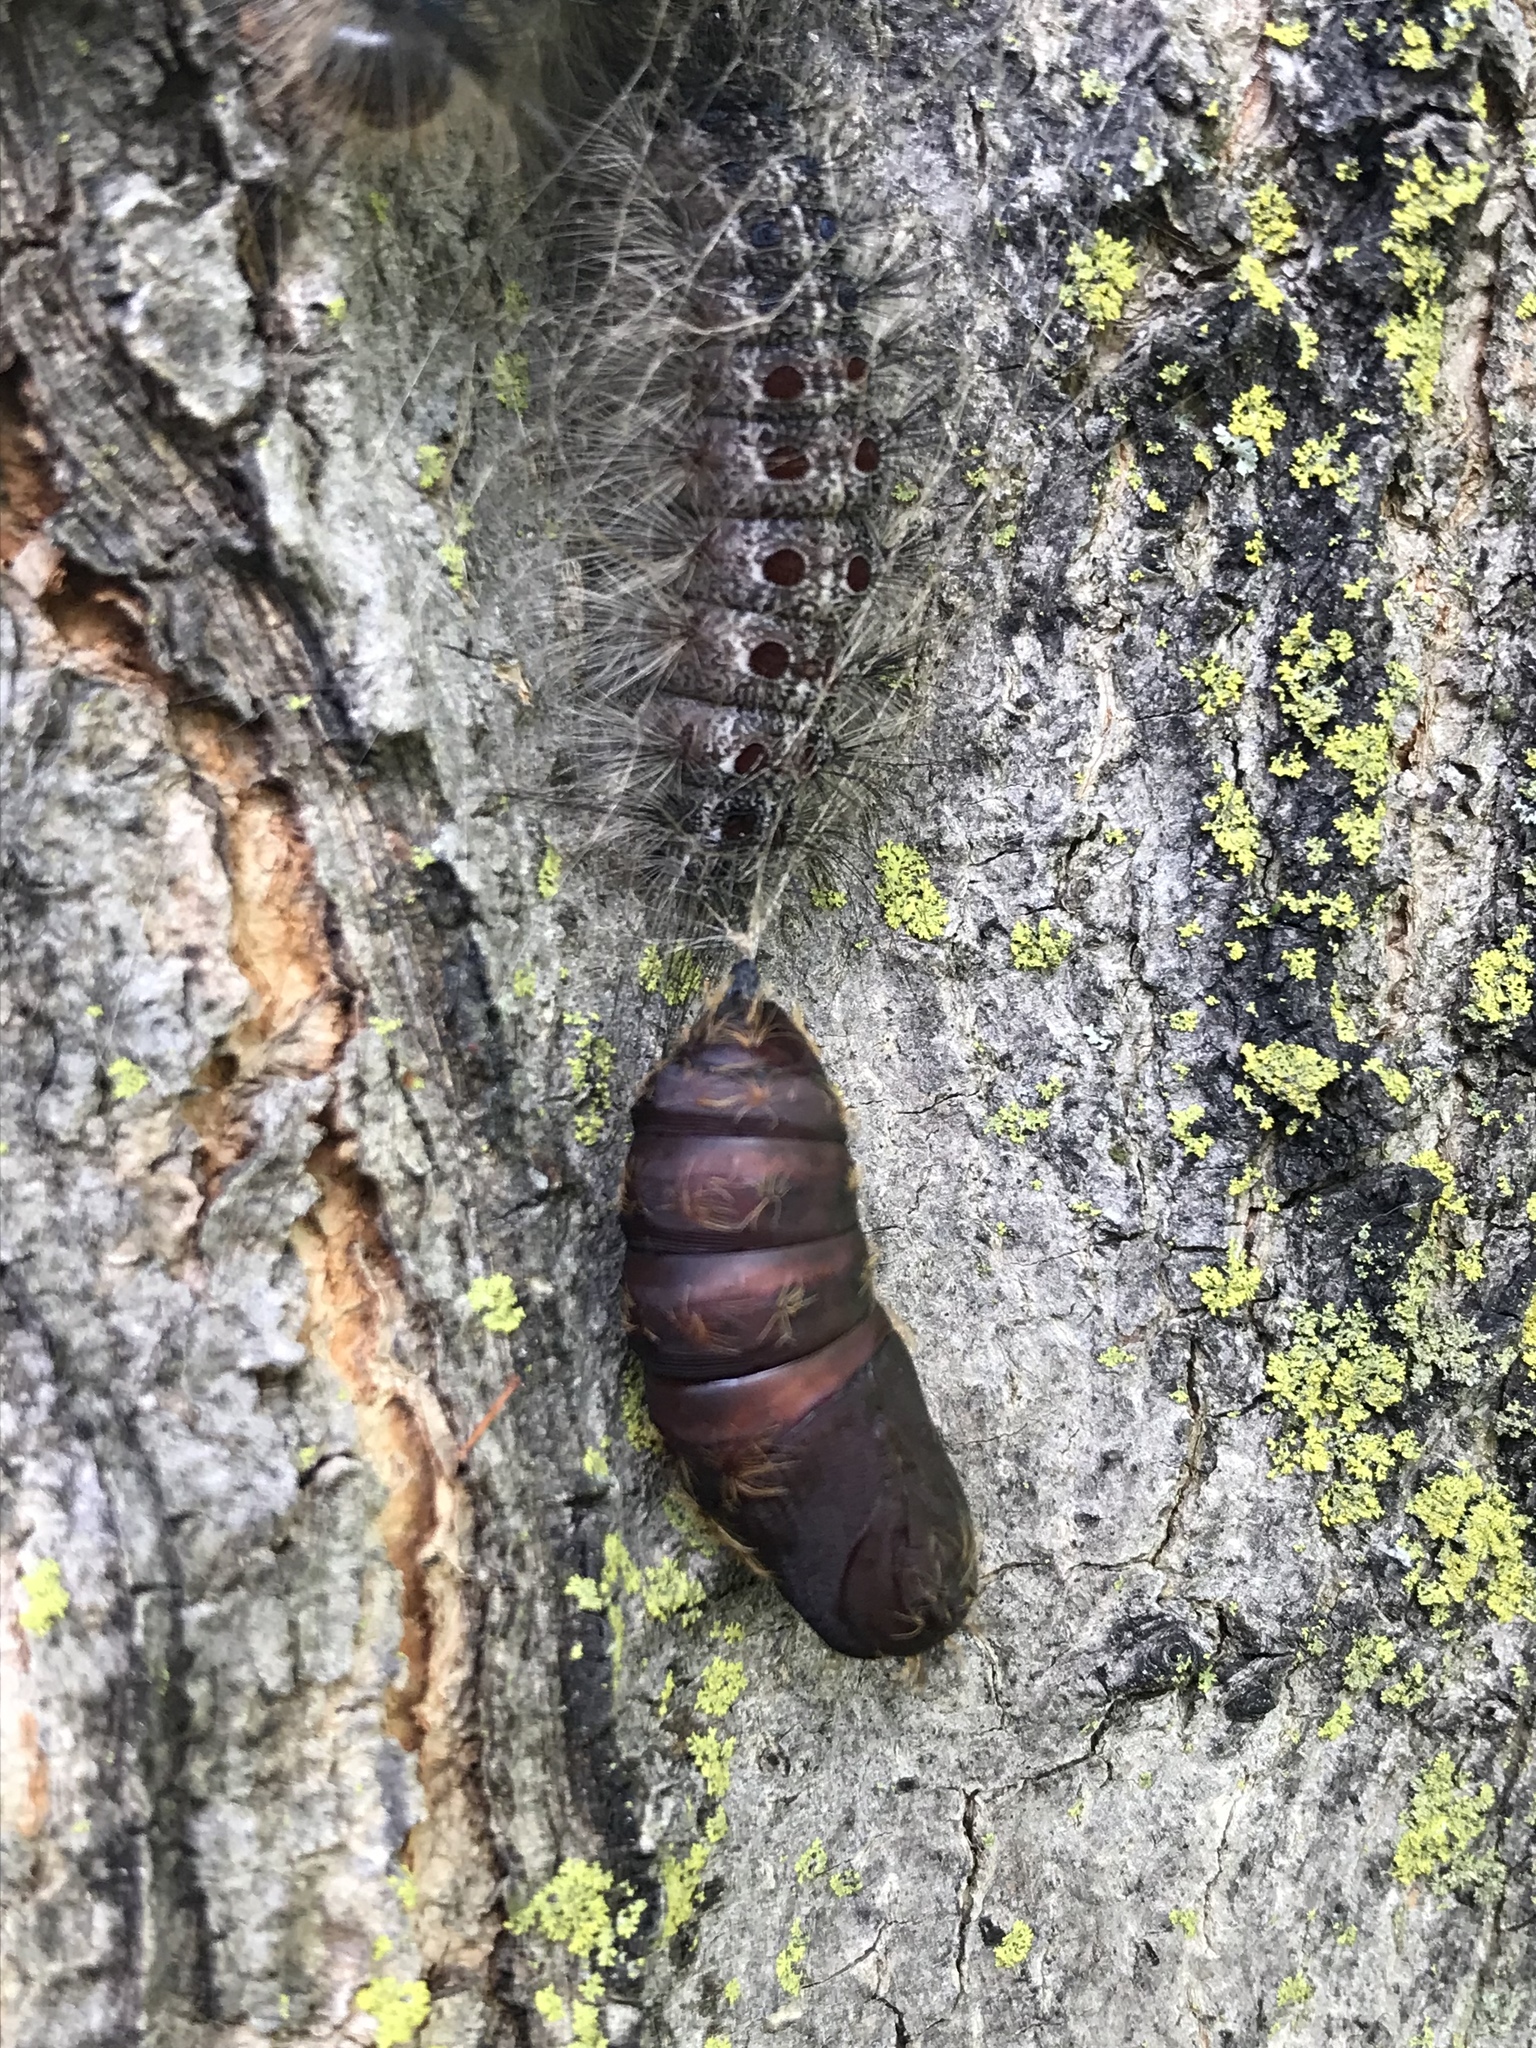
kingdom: Animalia
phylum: Arthropoda
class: Insecta
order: Lepidoptera
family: Erebidae
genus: Lymantria
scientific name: Lymantria dispar
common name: Gypsy moth
